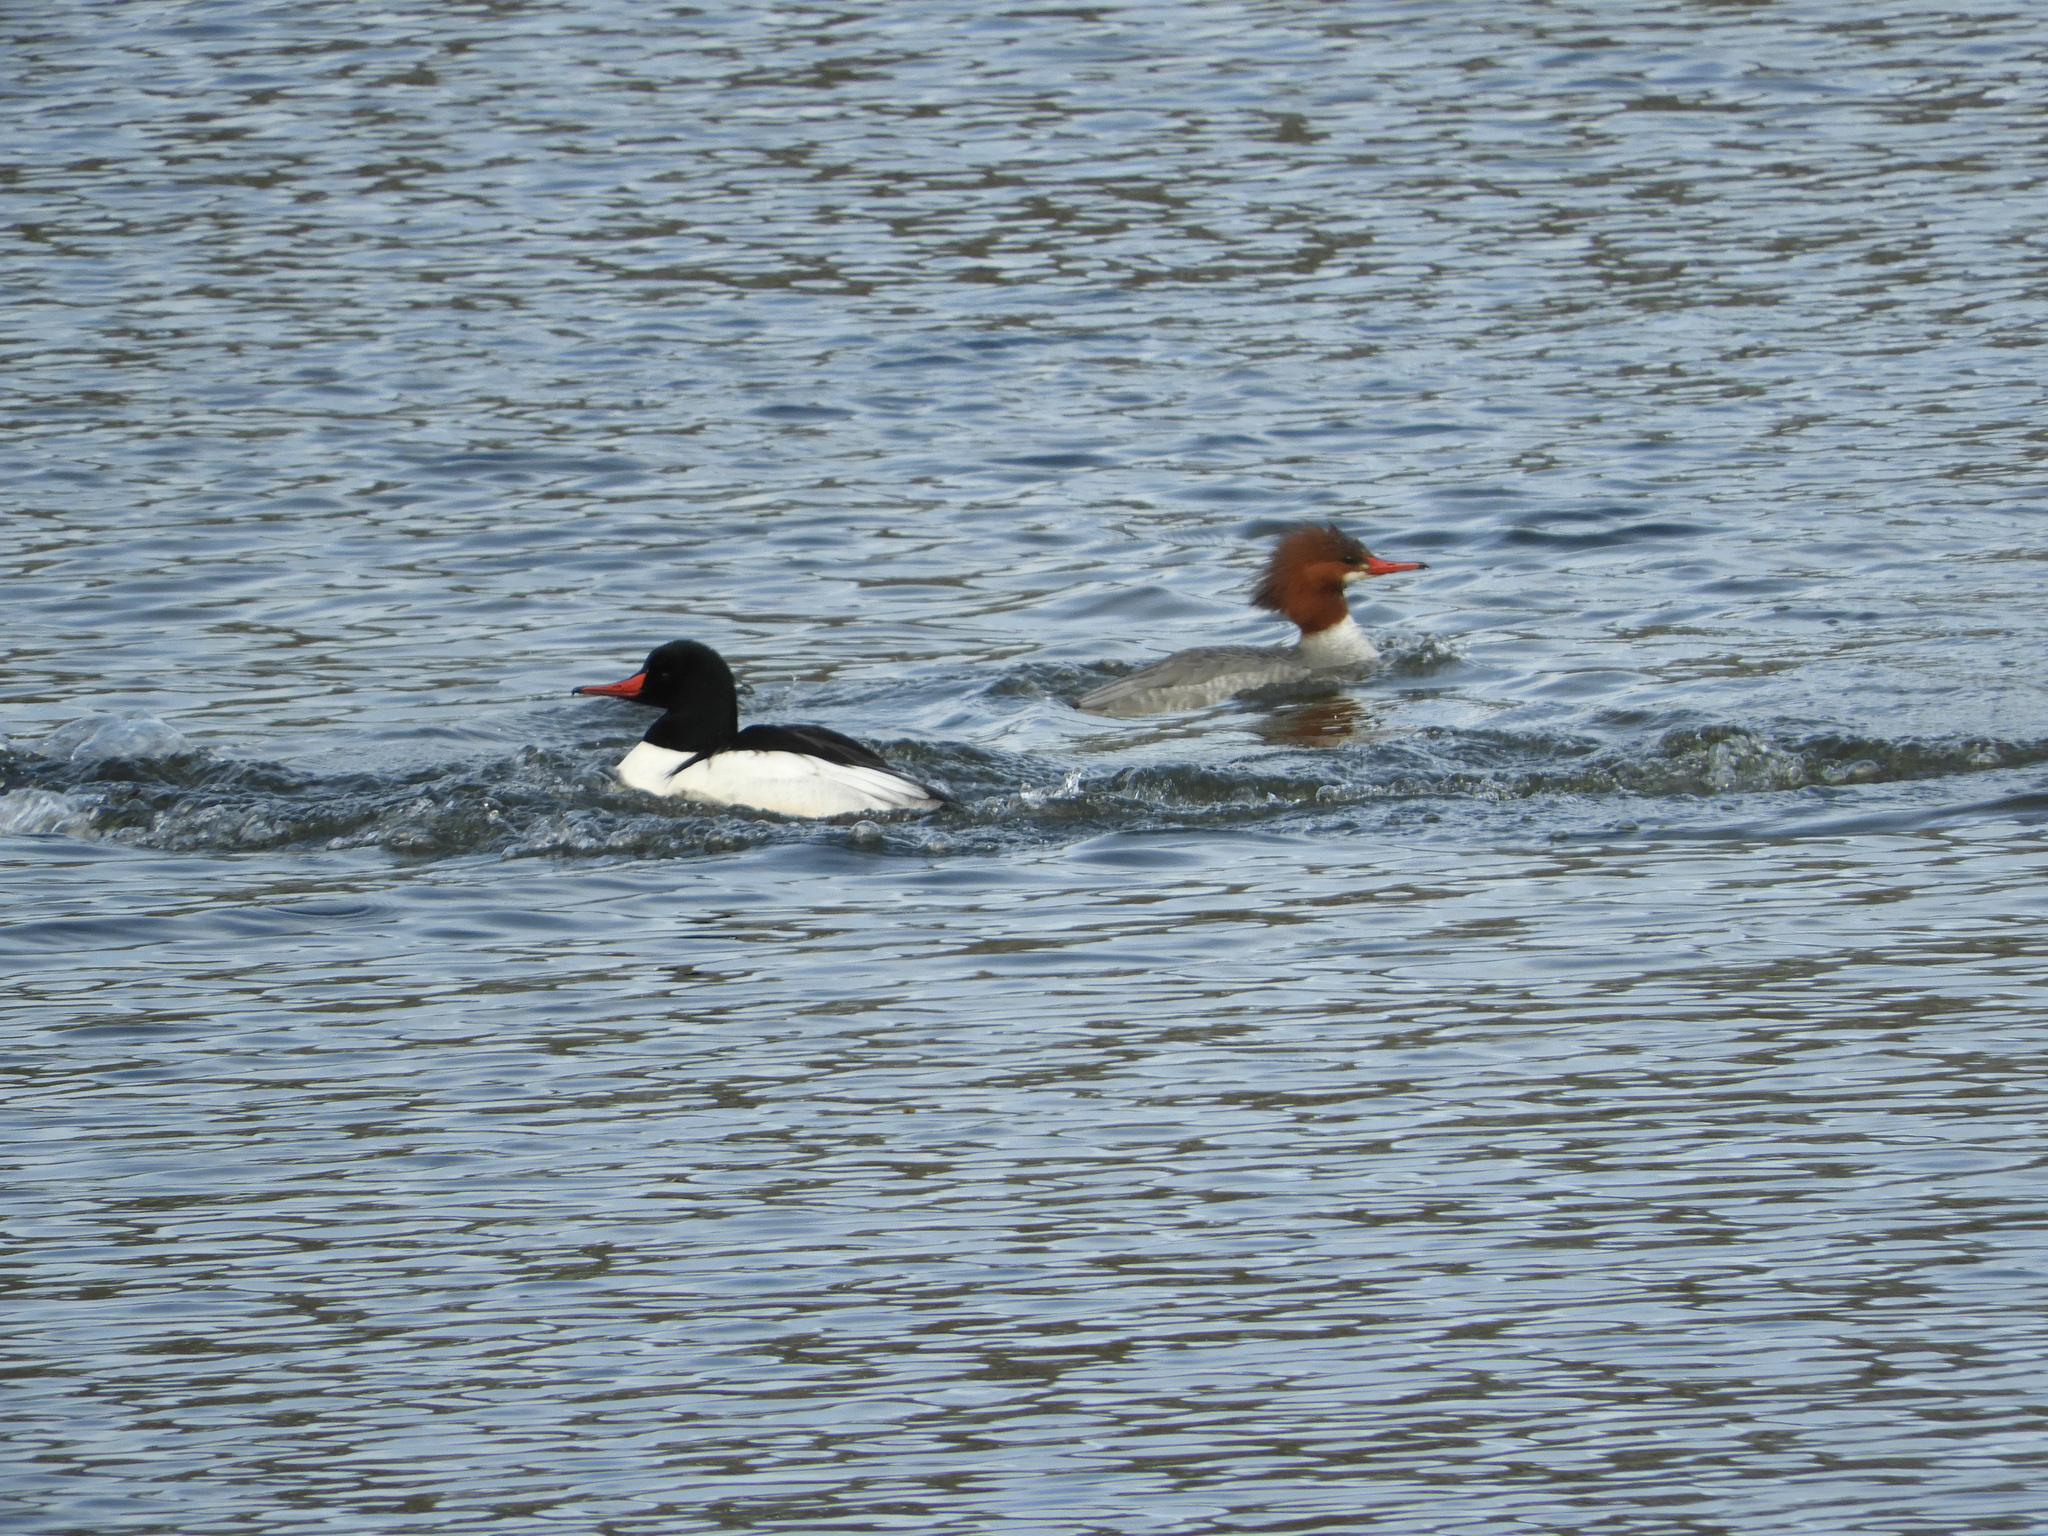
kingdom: Animalia
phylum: Chordata
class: Aves
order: Anseriformes
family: Anatidae
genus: Mergus
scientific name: Mergus merganser
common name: Common merganser
